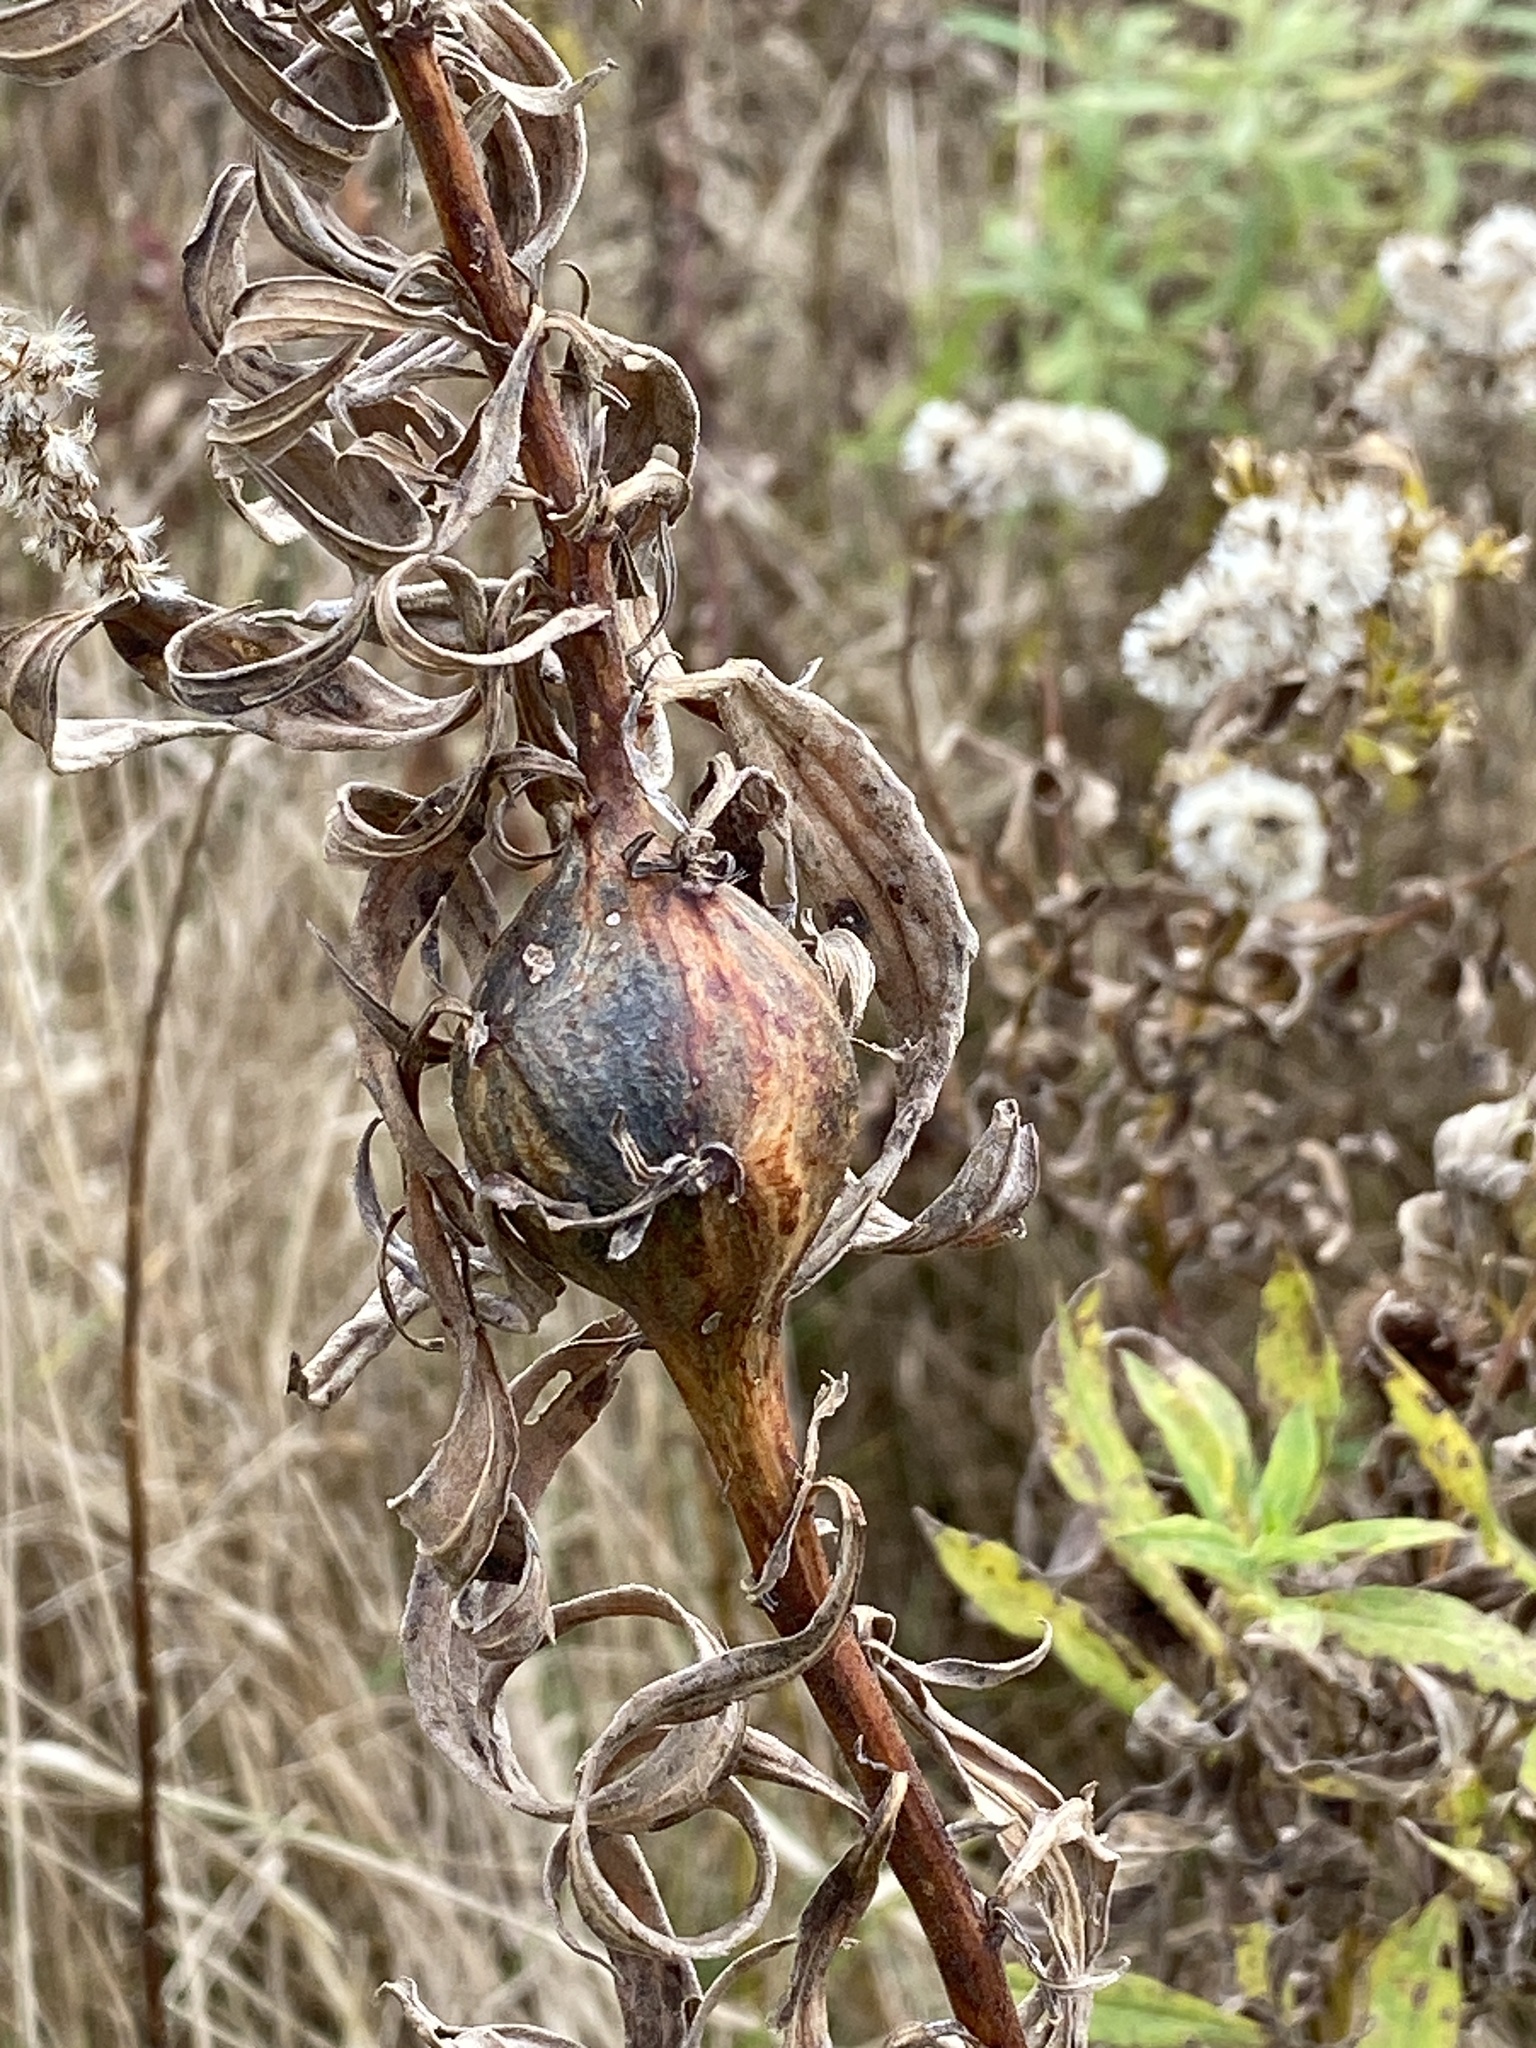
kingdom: Animalia
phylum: Arthropoda
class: Insecta
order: Diptera
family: Tephritidae
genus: Eurosta
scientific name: Eurosta solidaginis
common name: Goldenrod gall fly
